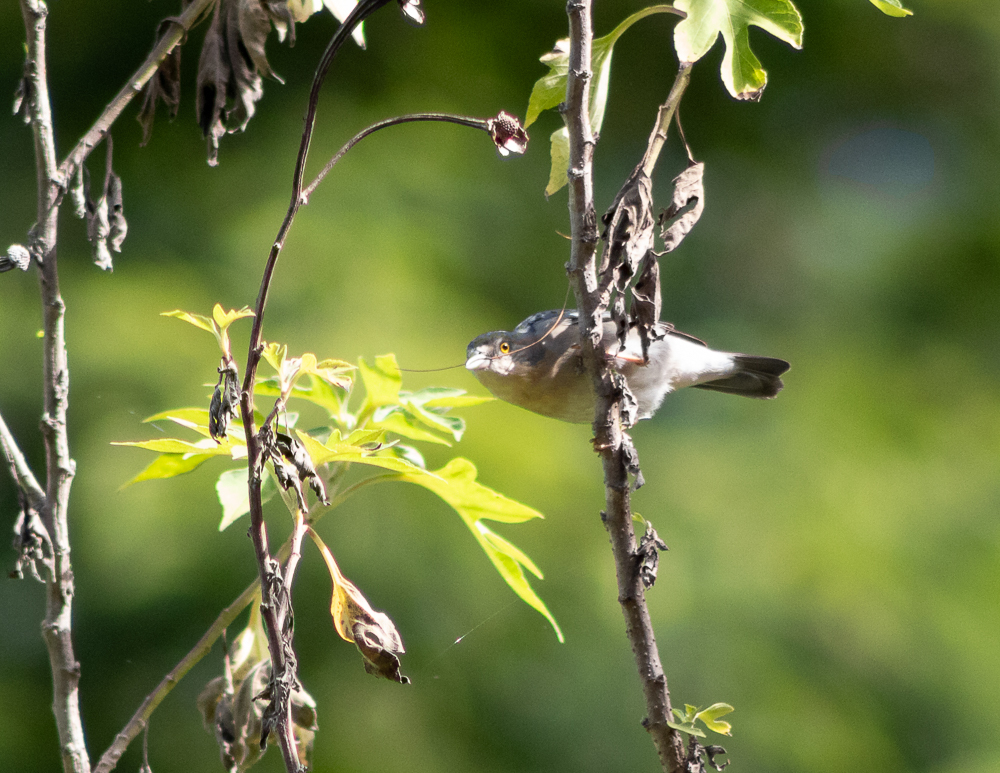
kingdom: Animalia
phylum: Chordata
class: Aves
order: Passeriformes
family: Thraupidae
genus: Nemosia
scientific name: Nemosia pileata
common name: Hooded tanager
